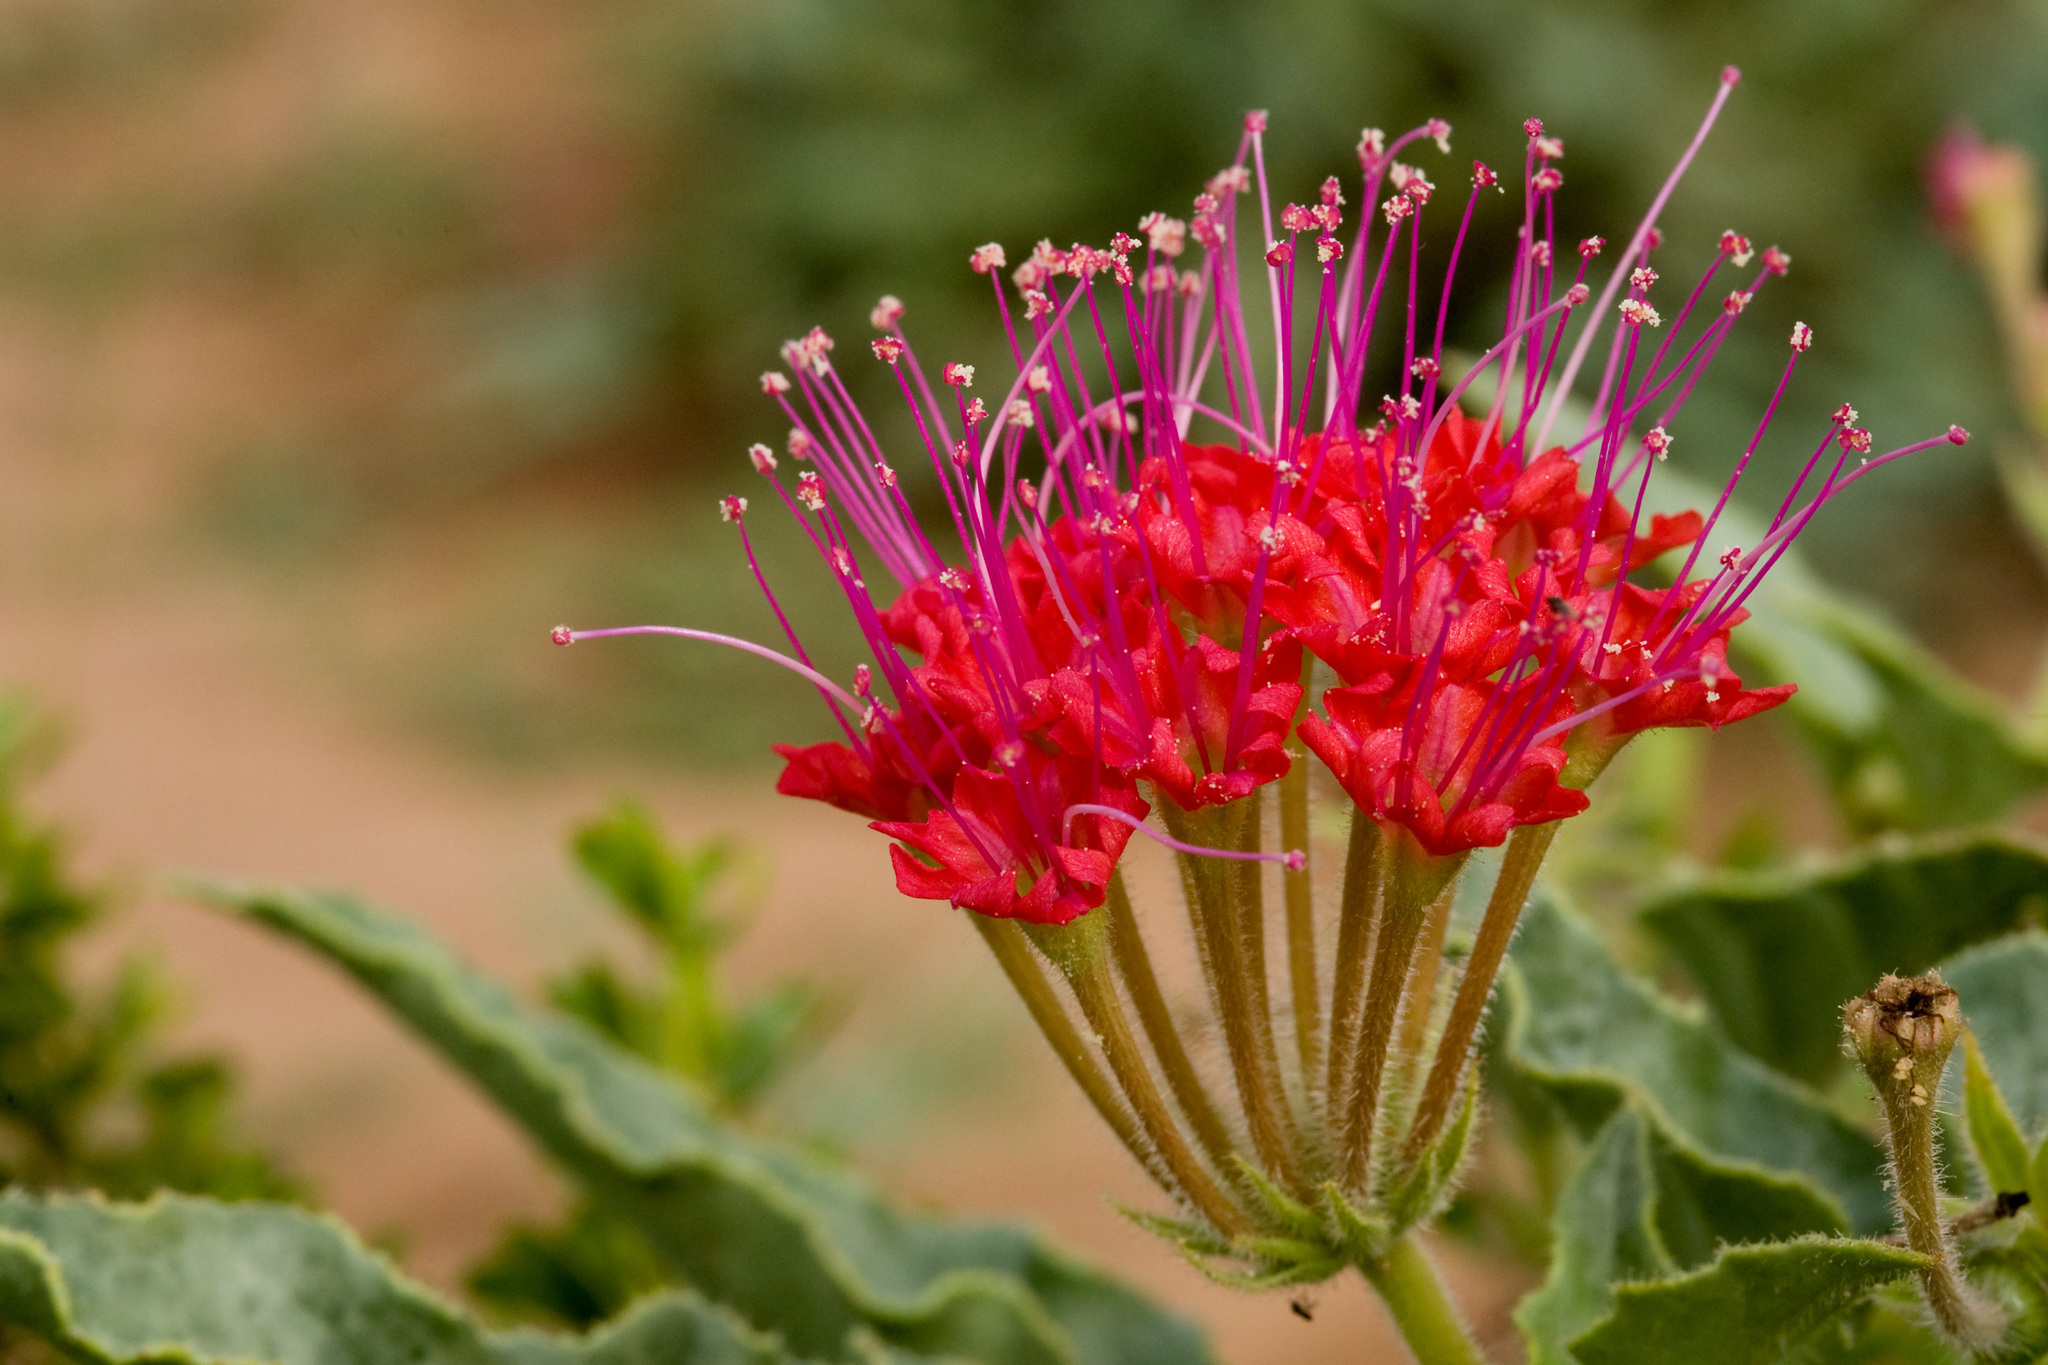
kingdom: Plantae
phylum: Tracheophyta
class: Magnoliopsida
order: Caryophyllales
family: Nyctaginaceae
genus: Nyctaginia
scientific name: Nyctaginia capitata
